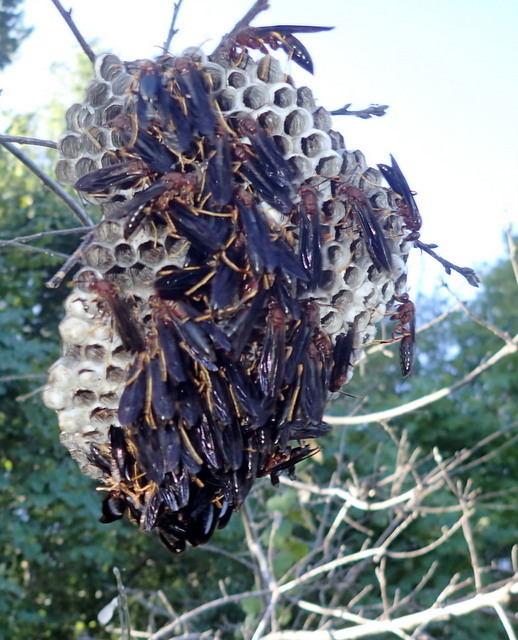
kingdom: Animalia
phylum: Arthropoda
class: Insecta
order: Hymenoptera
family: Eumenidae
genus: Polistes
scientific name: Polistes annularis
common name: Ringed paper wasp
